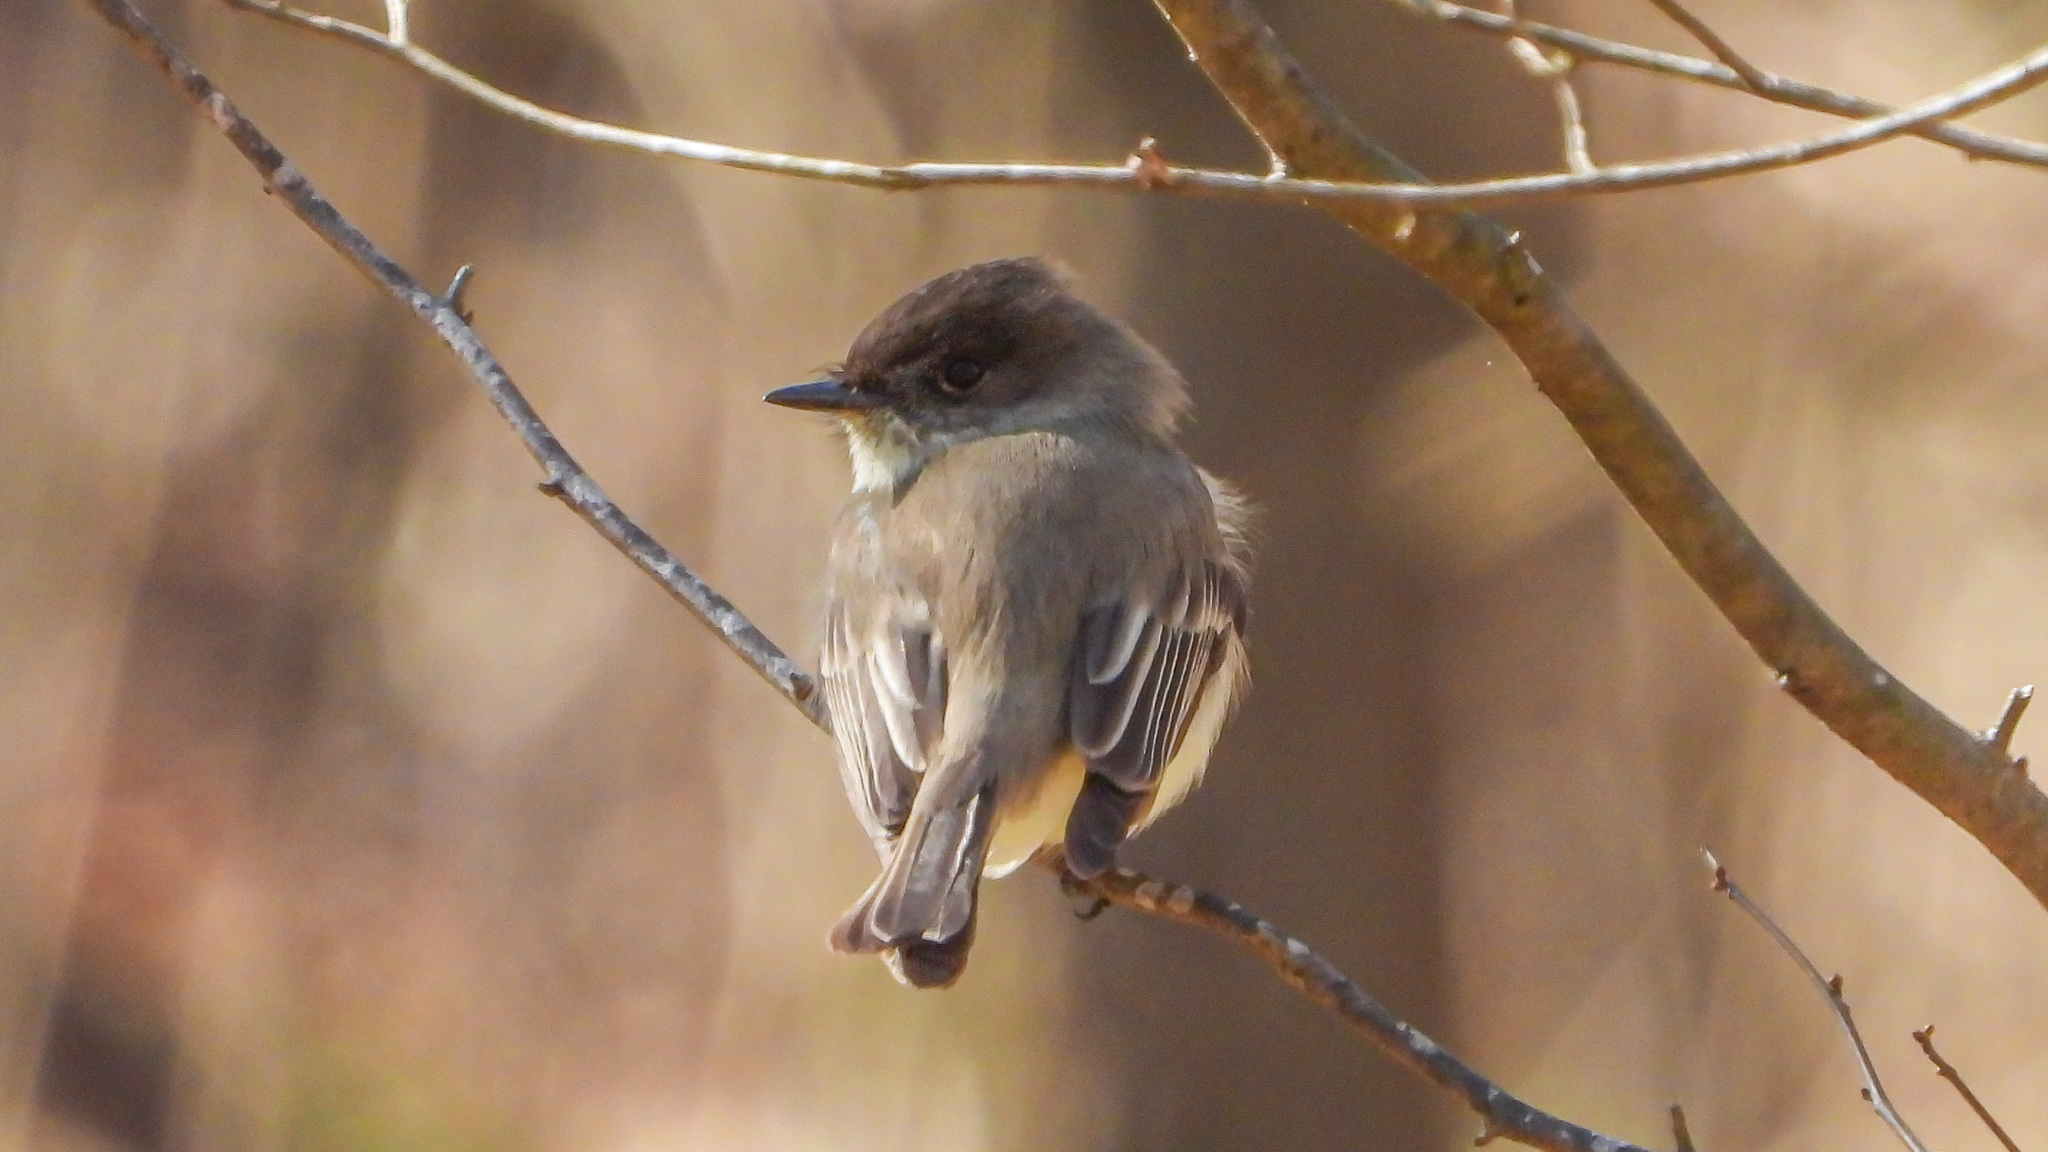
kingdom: Animalia
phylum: Chordata
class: Aves
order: Passeriformes
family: Tyrannidae
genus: Sayornis
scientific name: Sayornis phoebe
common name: Eastern phoebe
